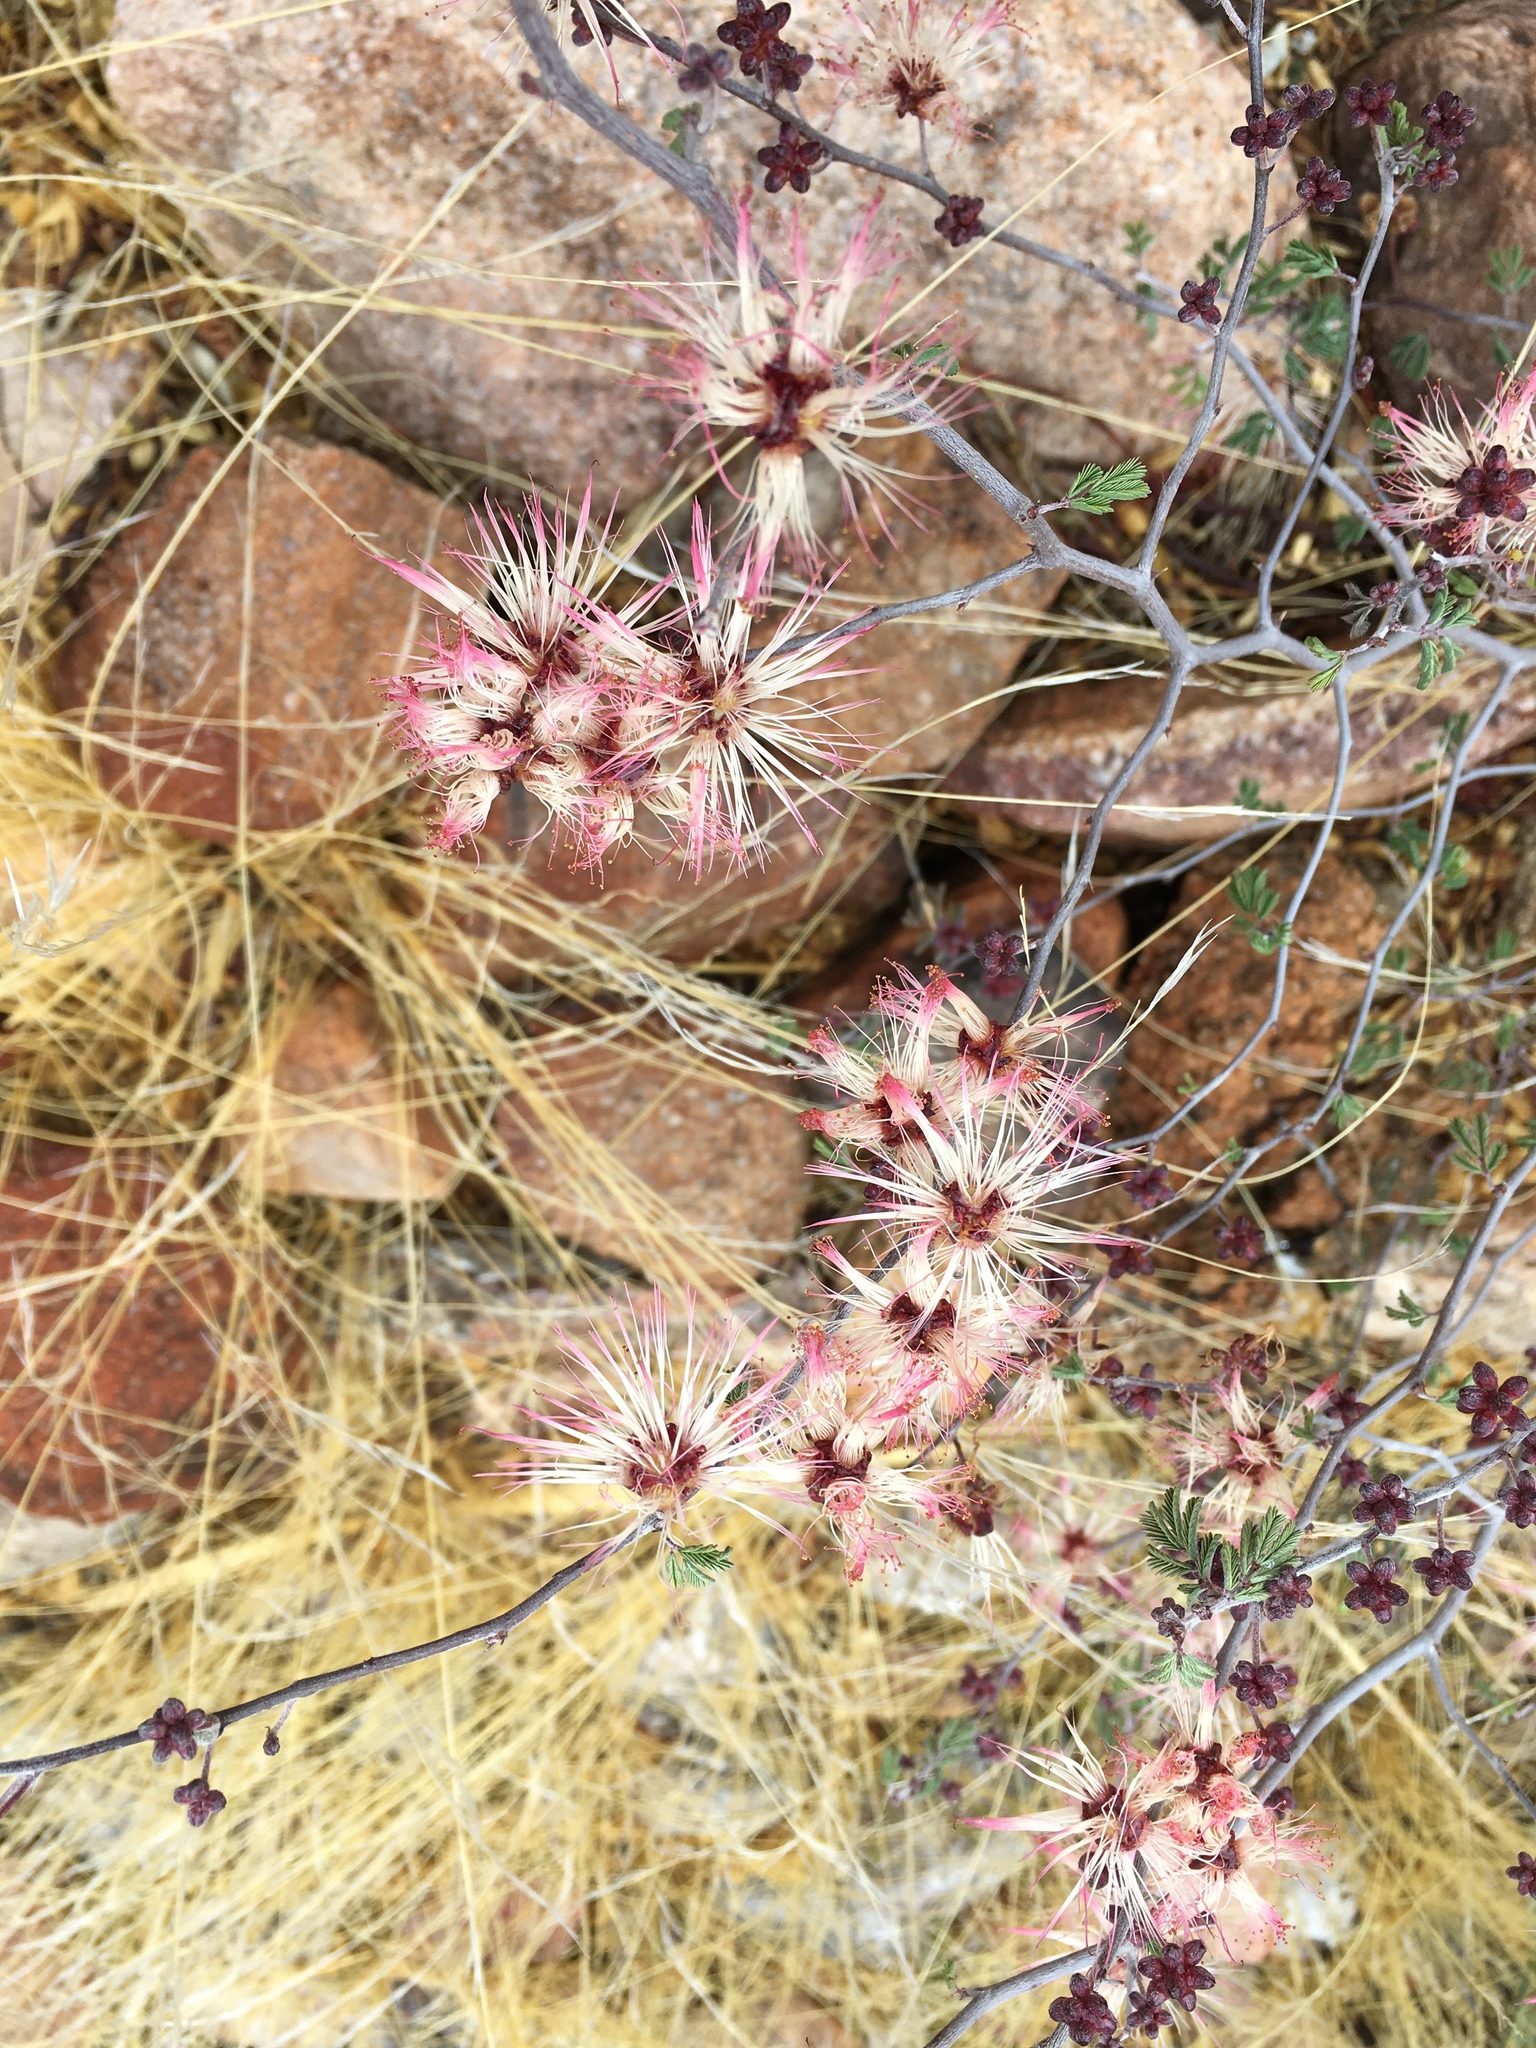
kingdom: Plantae
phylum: Tracheophyta
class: Magnoliopsida
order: Fabales
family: Fabaceae
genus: Calliandra
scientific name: Calliandra eriophylla
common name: Fairy-duster
